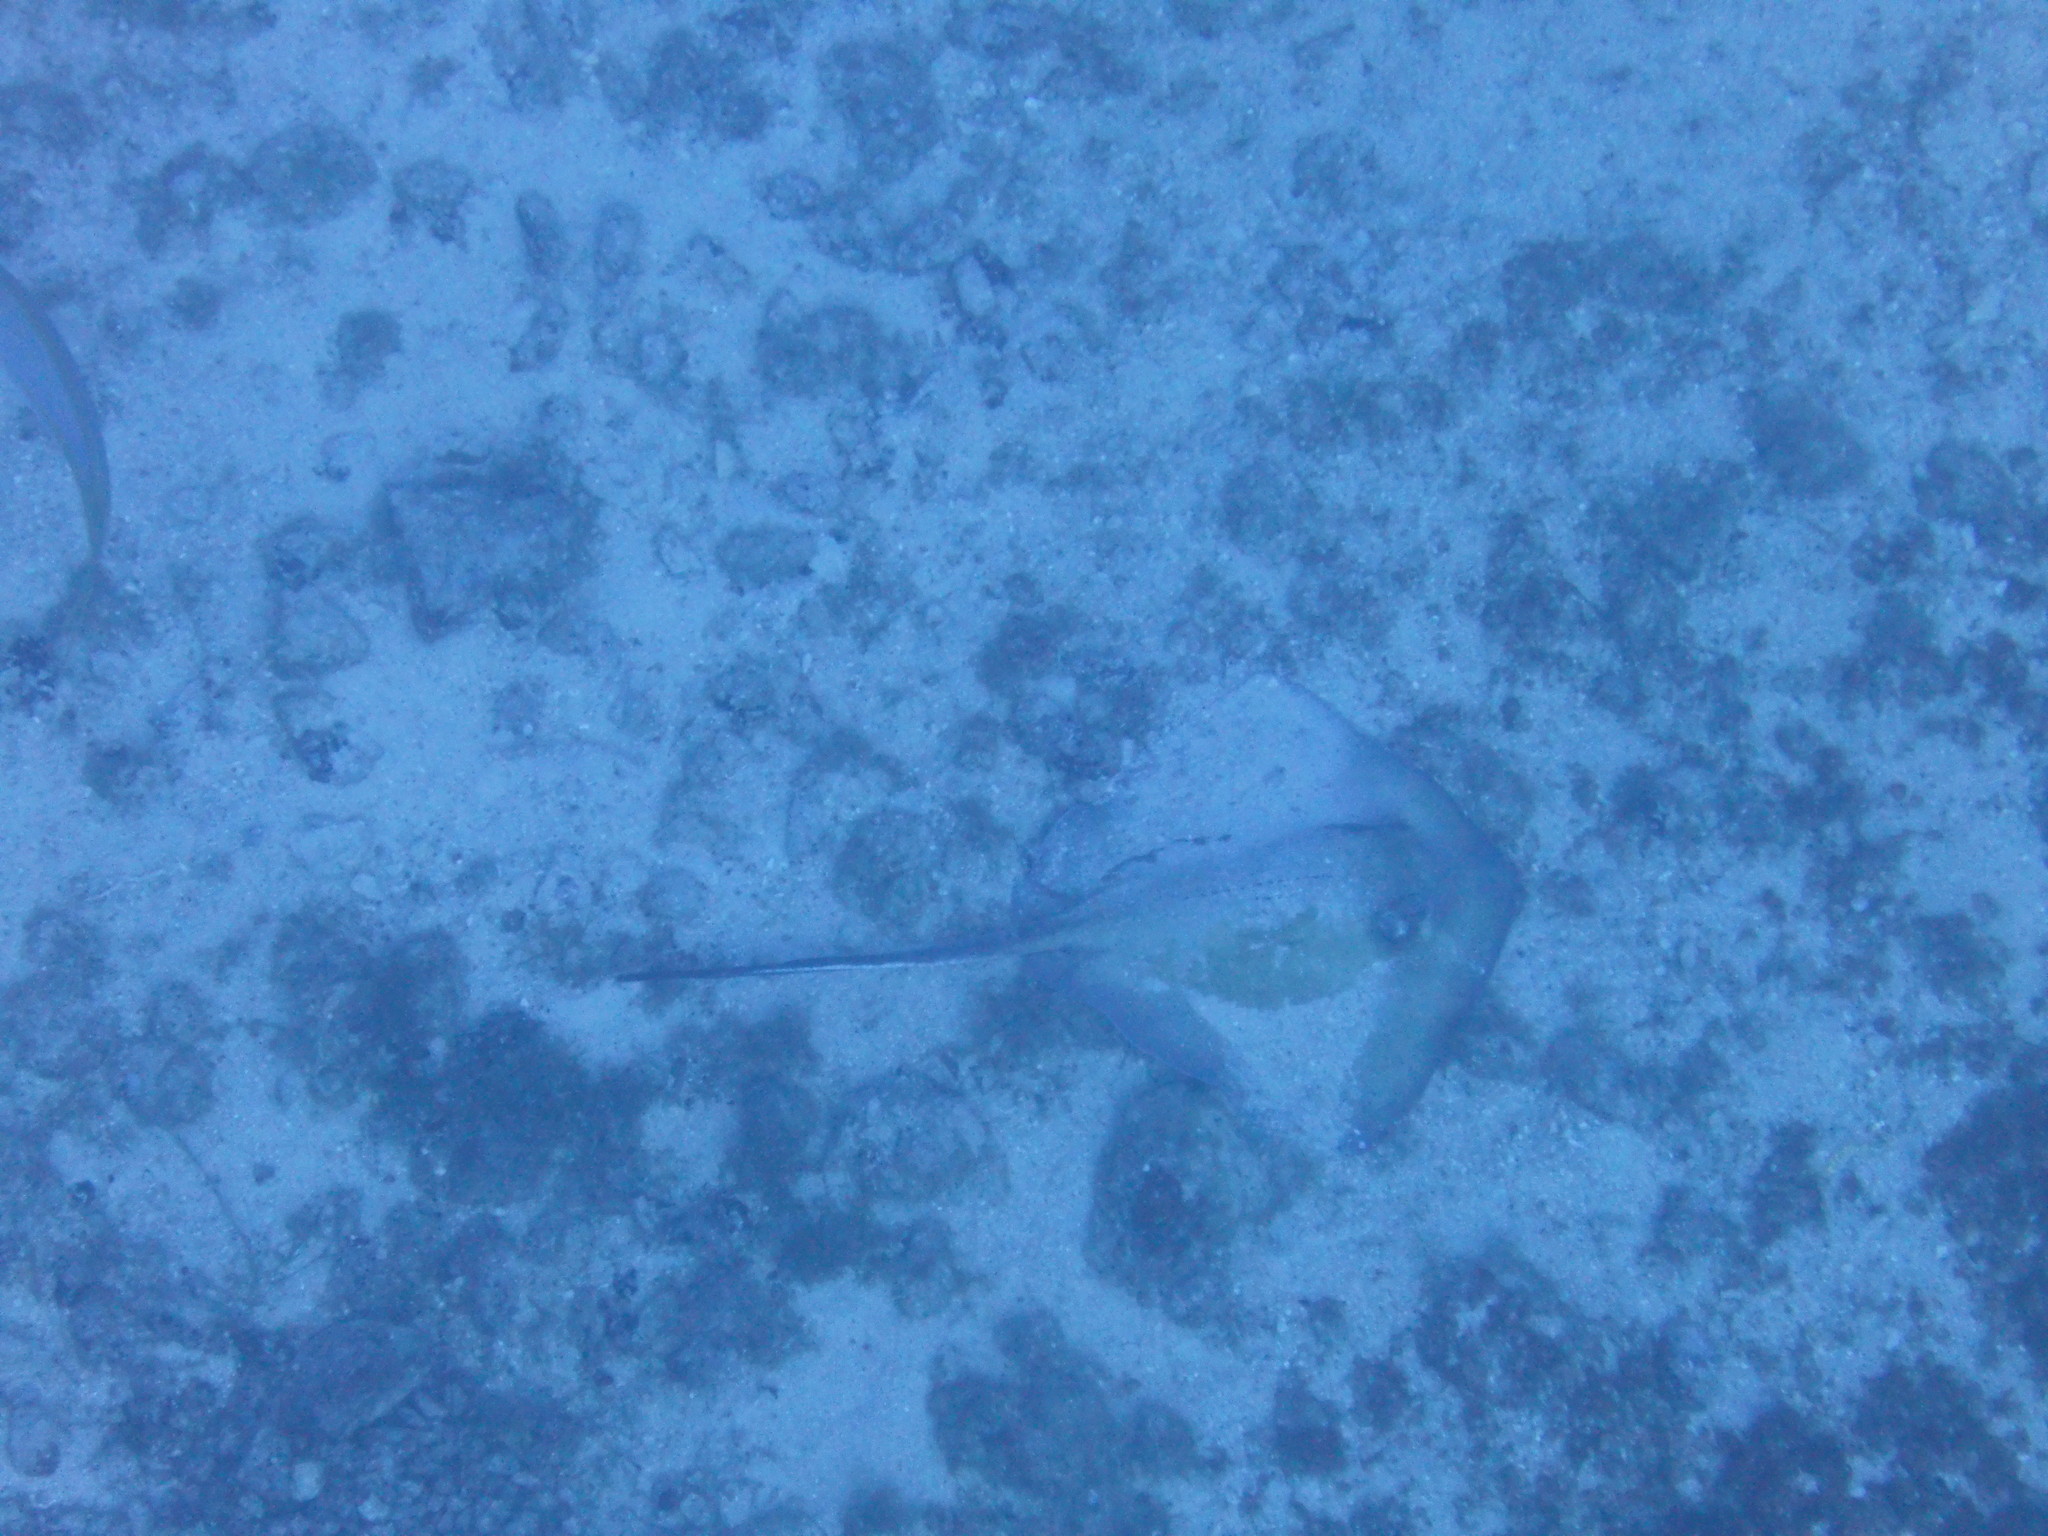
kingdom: Animalia
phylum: Chordata
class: Elasmobranchii
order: Myliobatiformes
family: Dasyatidae
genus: Hypanus
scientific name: Hypanus americanus
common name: Southern stingray
